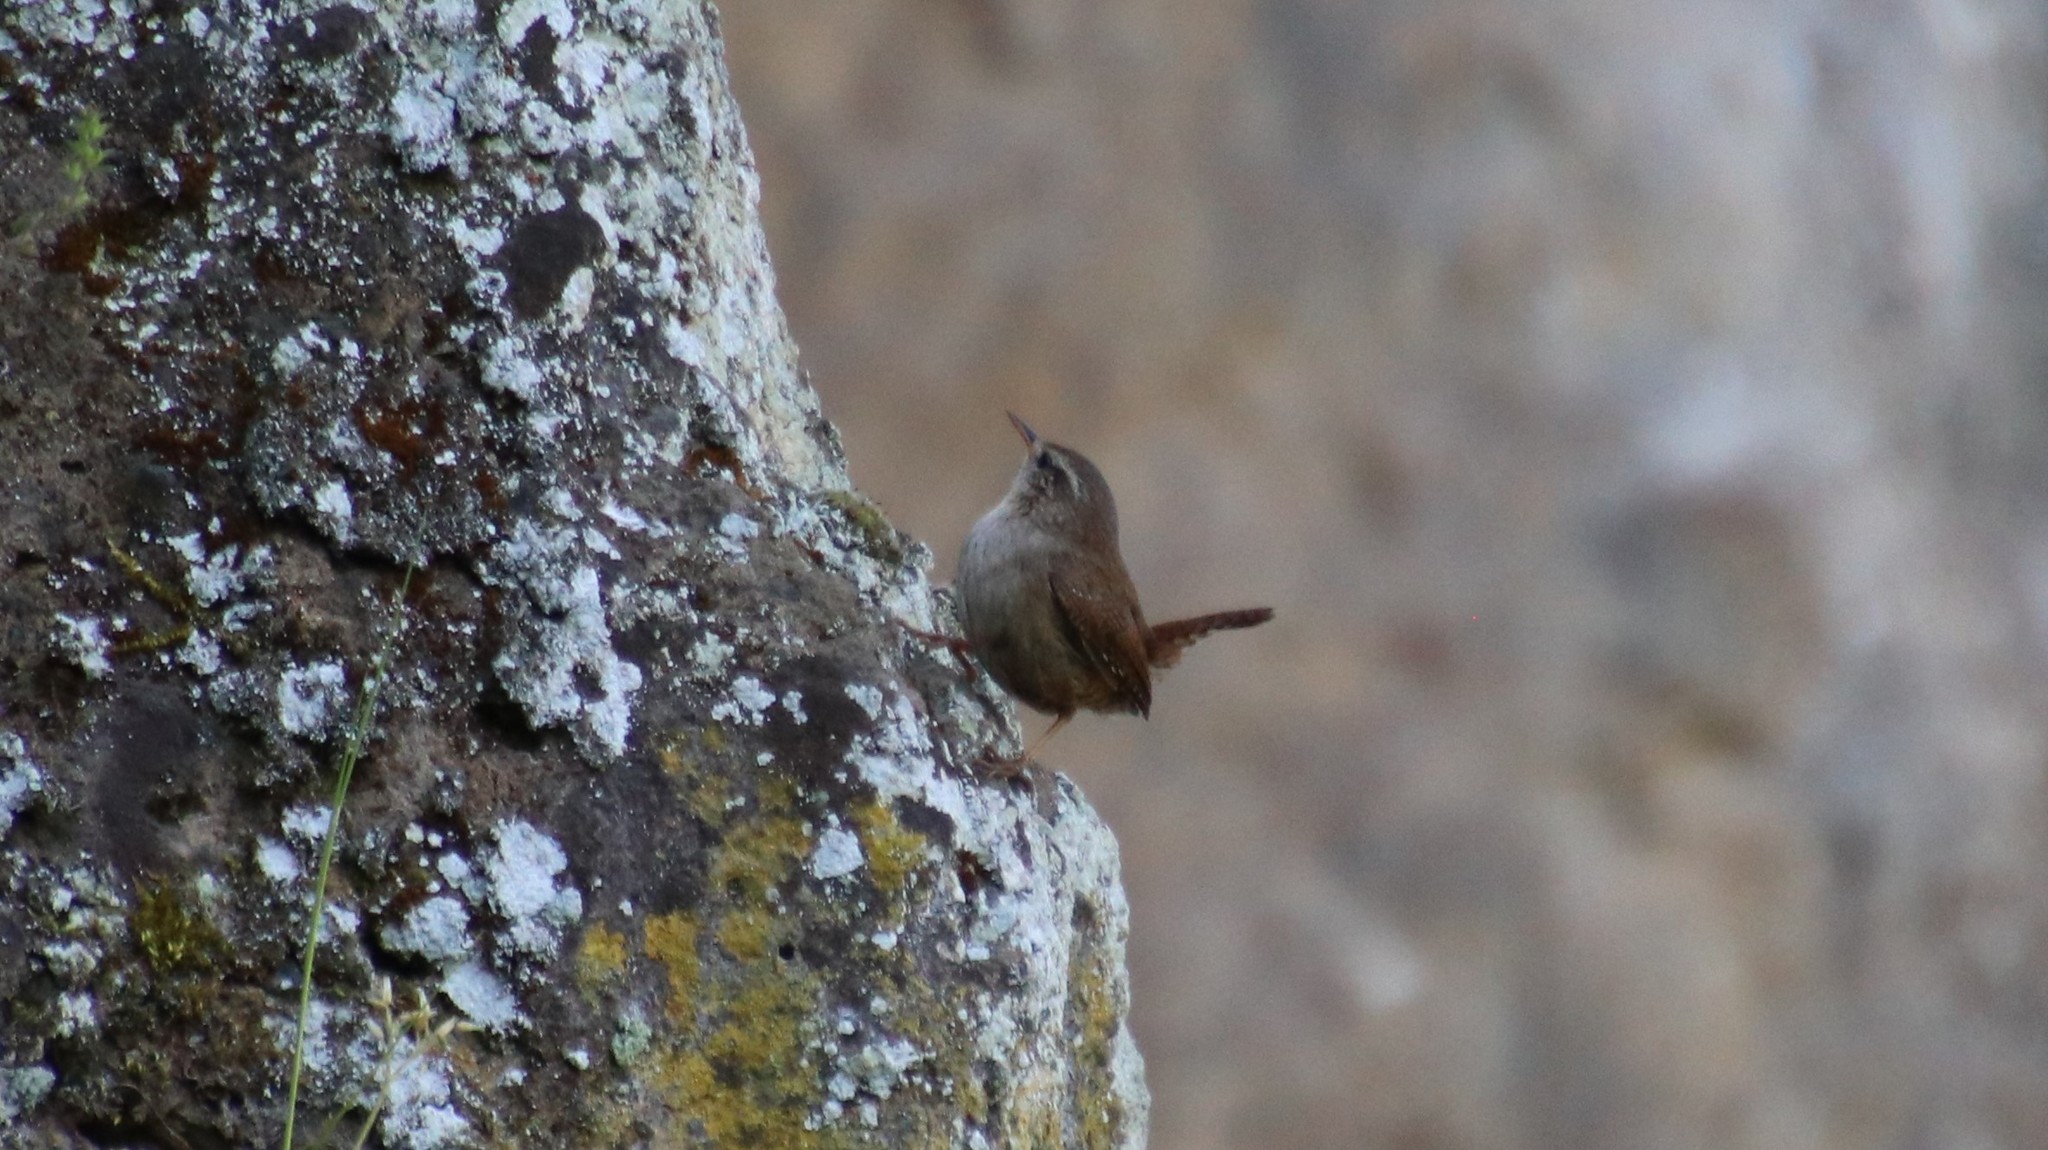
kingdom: Animalia
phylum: Chordata
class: Aves
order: Passeriformes
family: Troglodytidae
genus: Troglodytes
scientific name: Troglodytes troglodytes
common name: Eurasian wren
